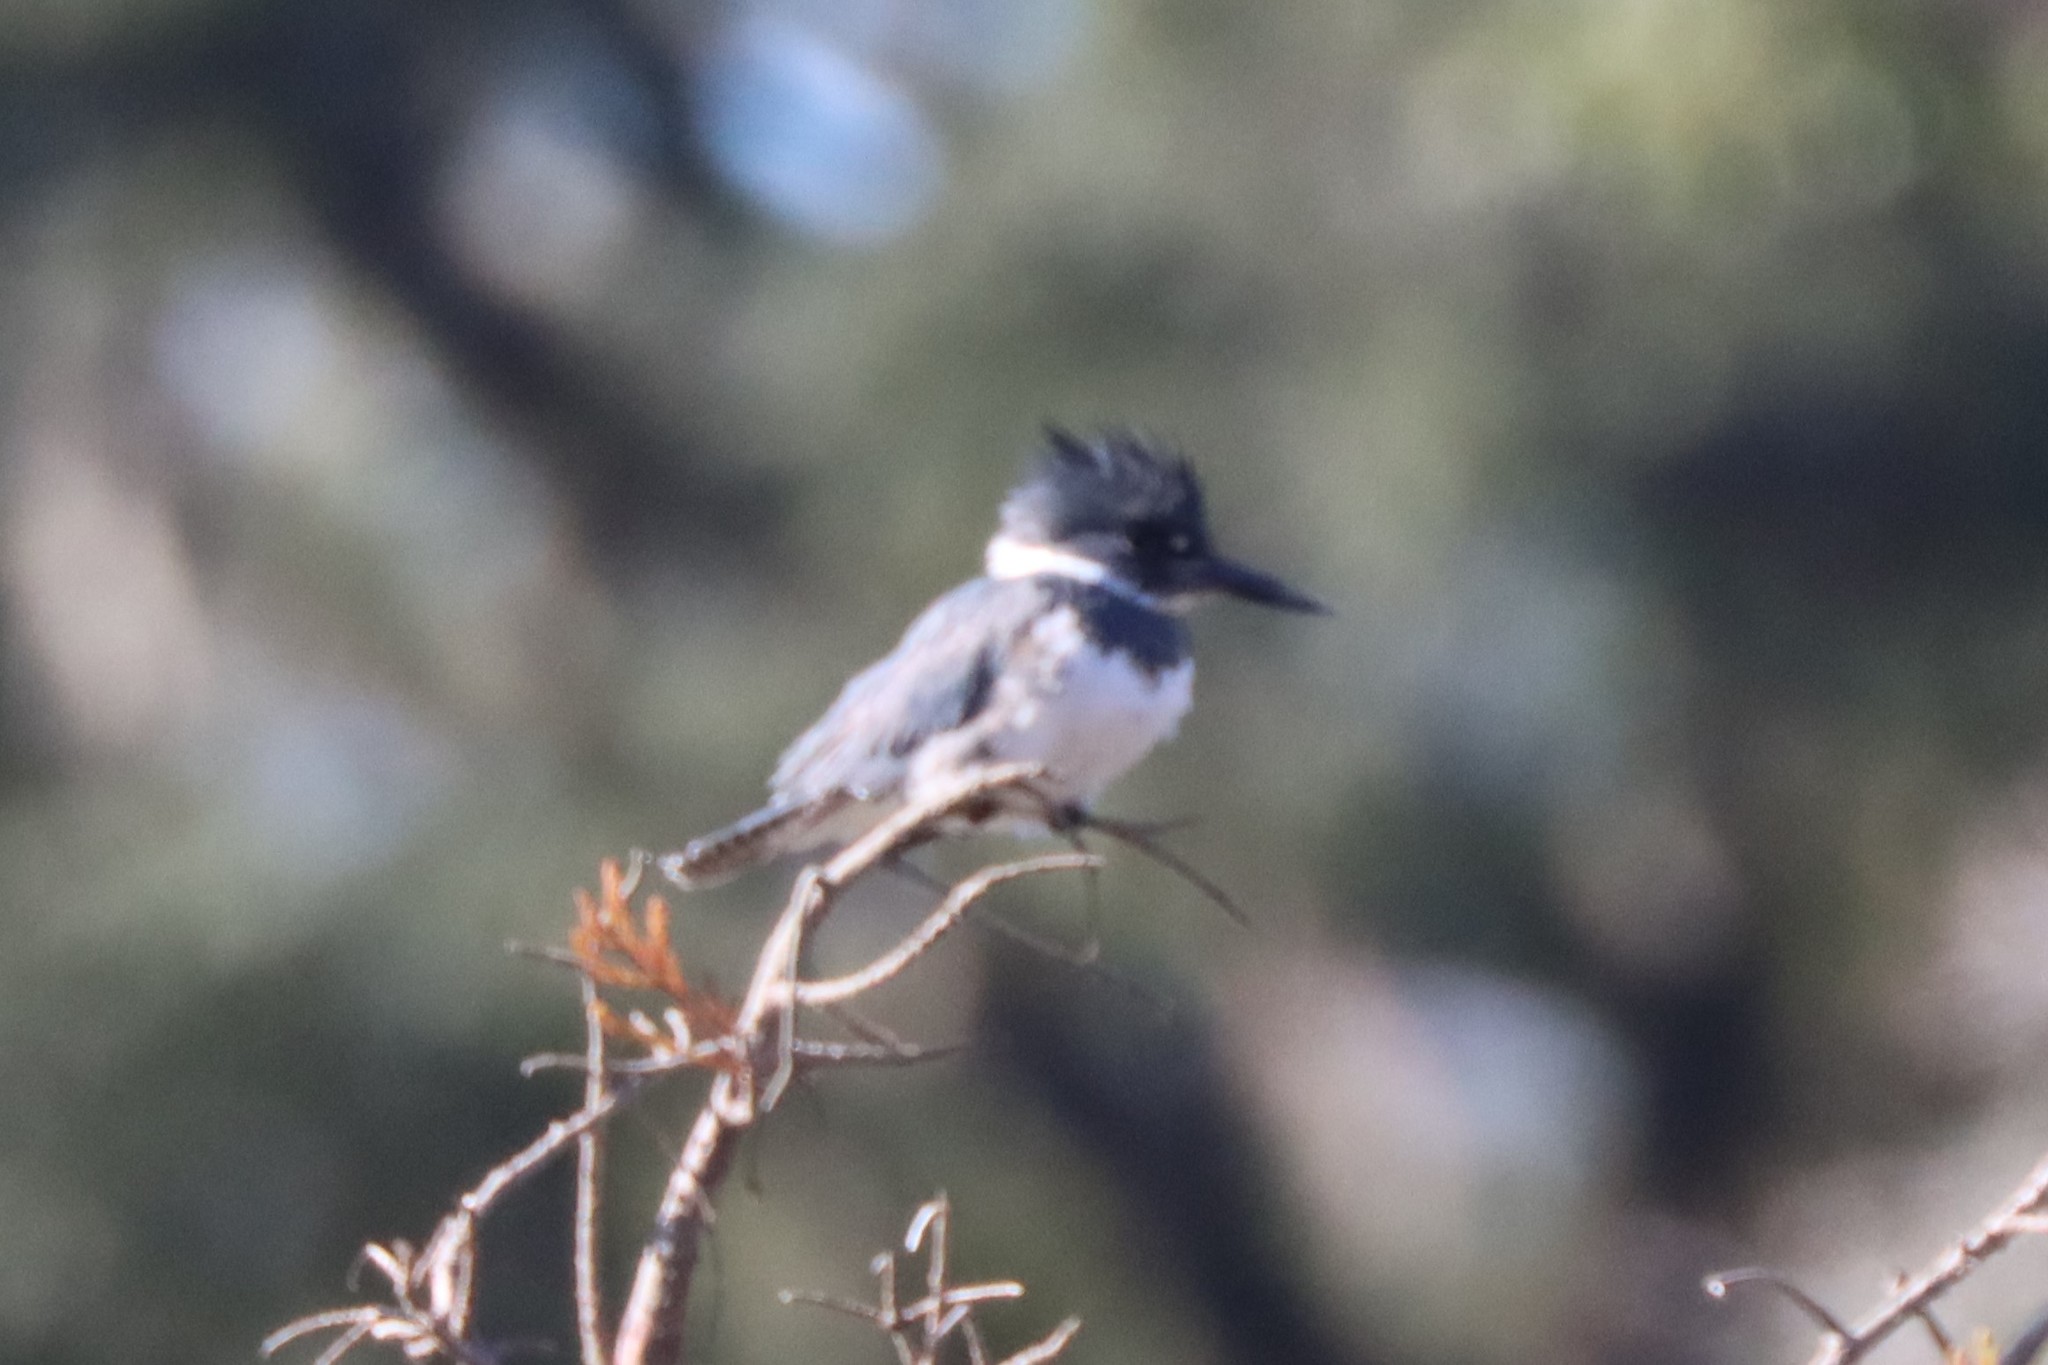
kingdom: Animalia
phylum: Chordata
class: Aves
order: Coraciiformes
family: Alcedinidae
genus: Megaceryle
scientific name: Megaceryle alcyon
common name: Belted kingfisher
